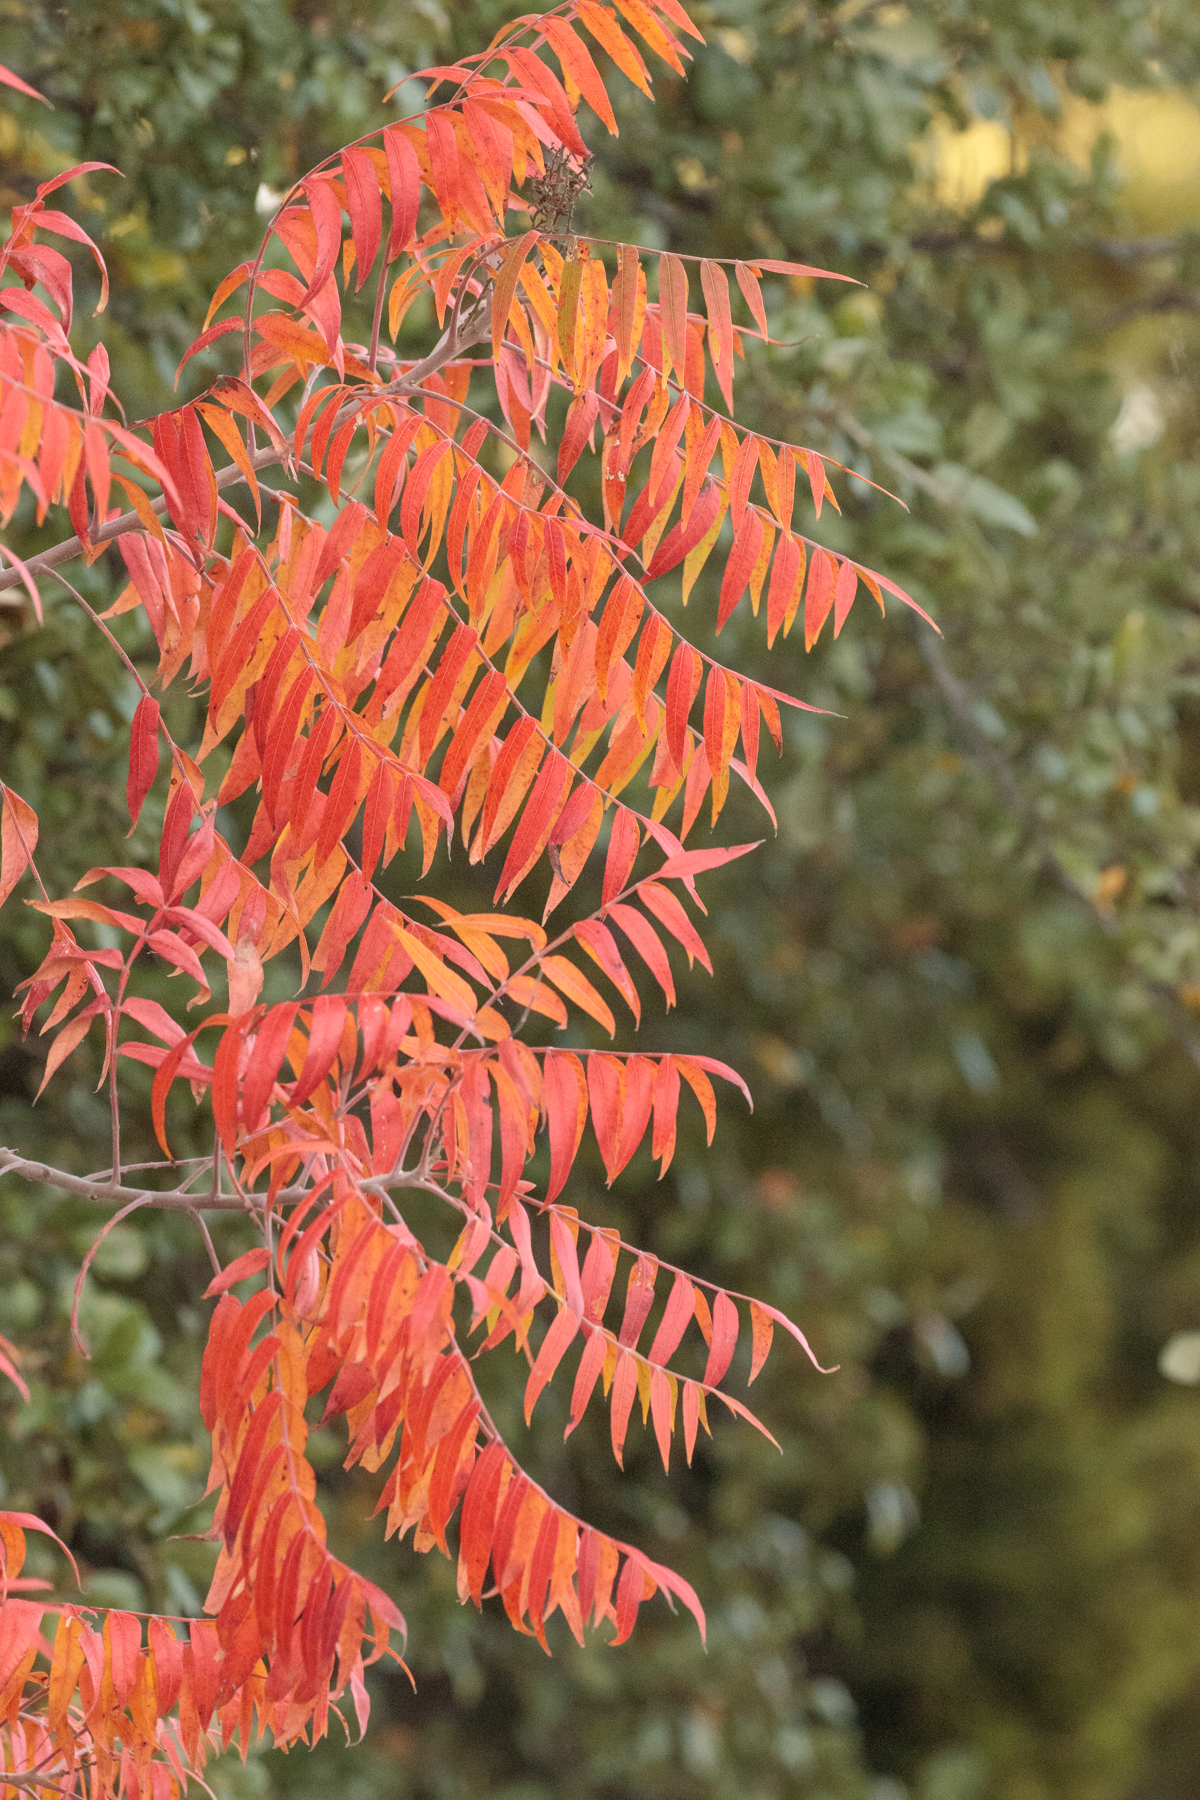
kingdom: Plantae
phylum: Tracheophyta
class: Magnoliopsida
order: Sapindales
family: Anacardiaceae
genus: Rhus
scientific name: Rhus lanceolata
